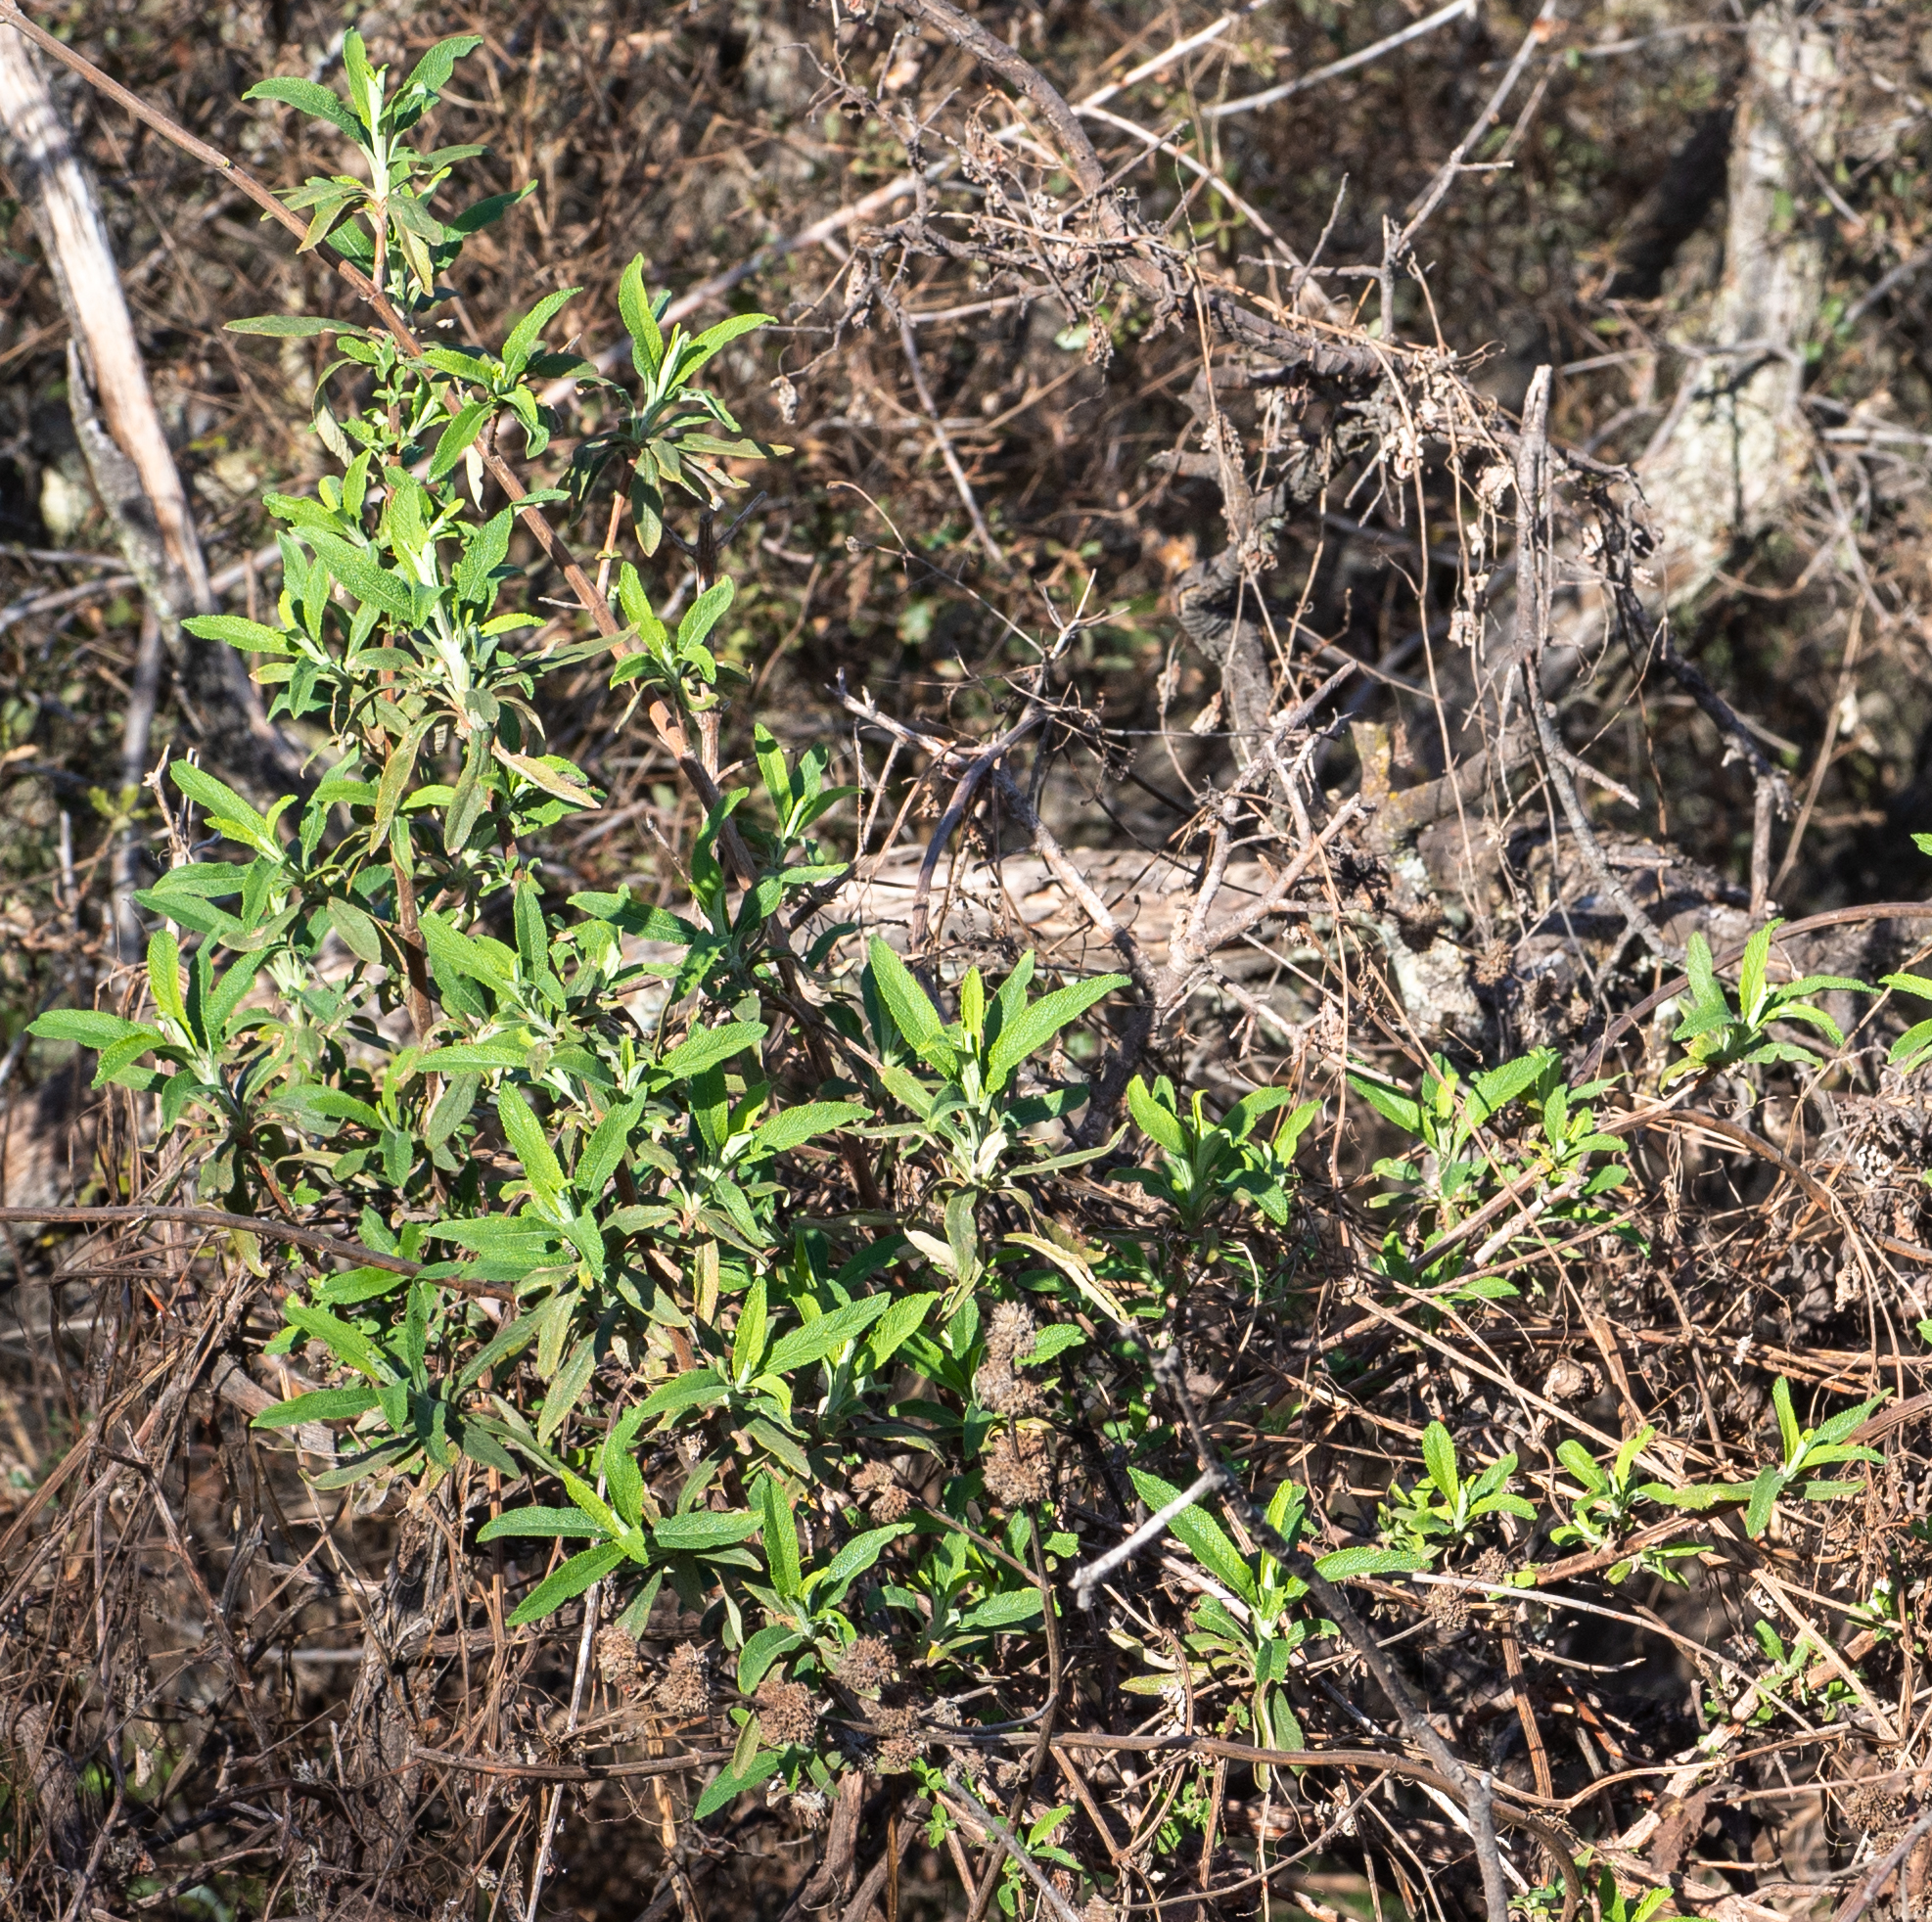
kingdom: Plantae
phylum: Tracheophyta
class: Magnoliopsida
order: Lamiales
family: Lamiaceae
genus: Salvia
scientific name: Salvia mellifera
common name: Black sage
